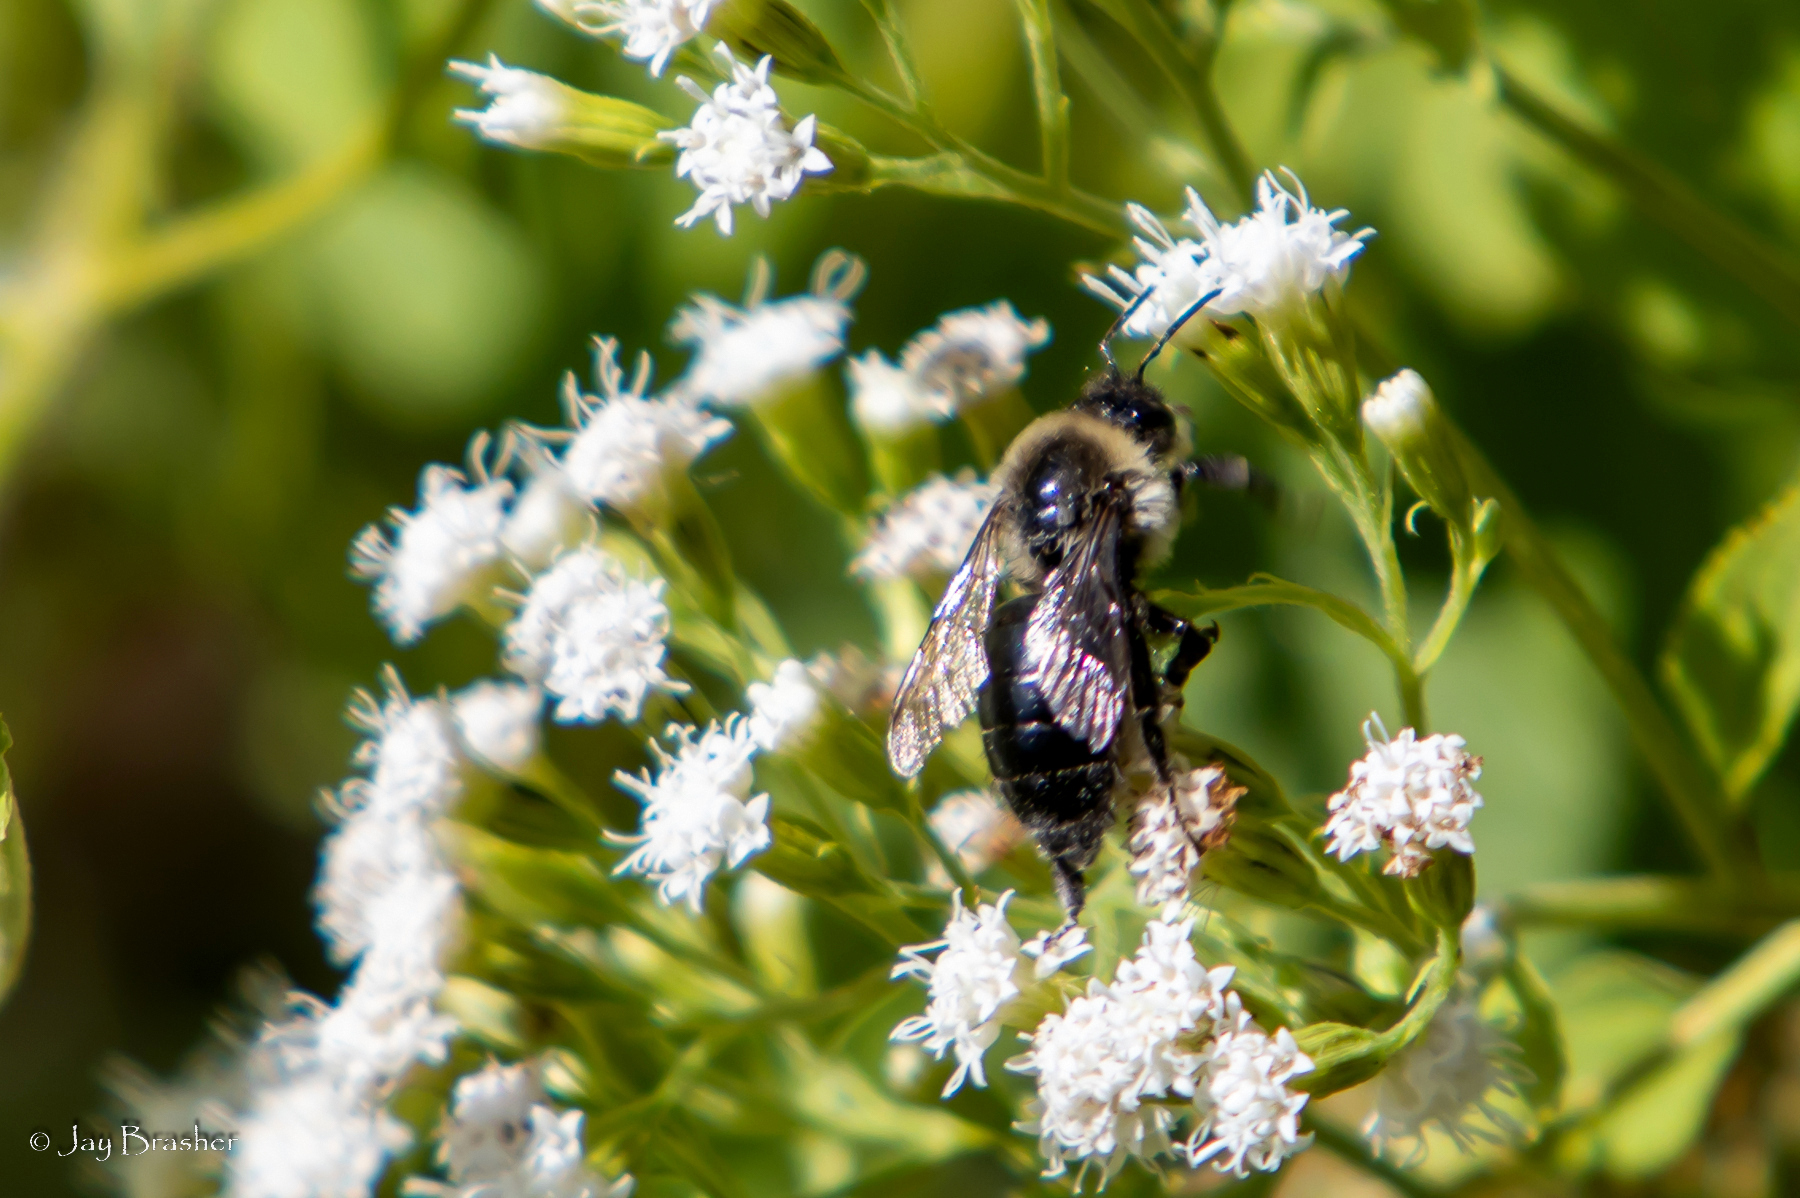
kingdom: Animalia
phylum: Arthropoda
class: Insecta
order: Hymenoptera
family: Apidae
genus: Bombus
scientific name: Bombus impatiens
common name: Common eastern bumble bee
